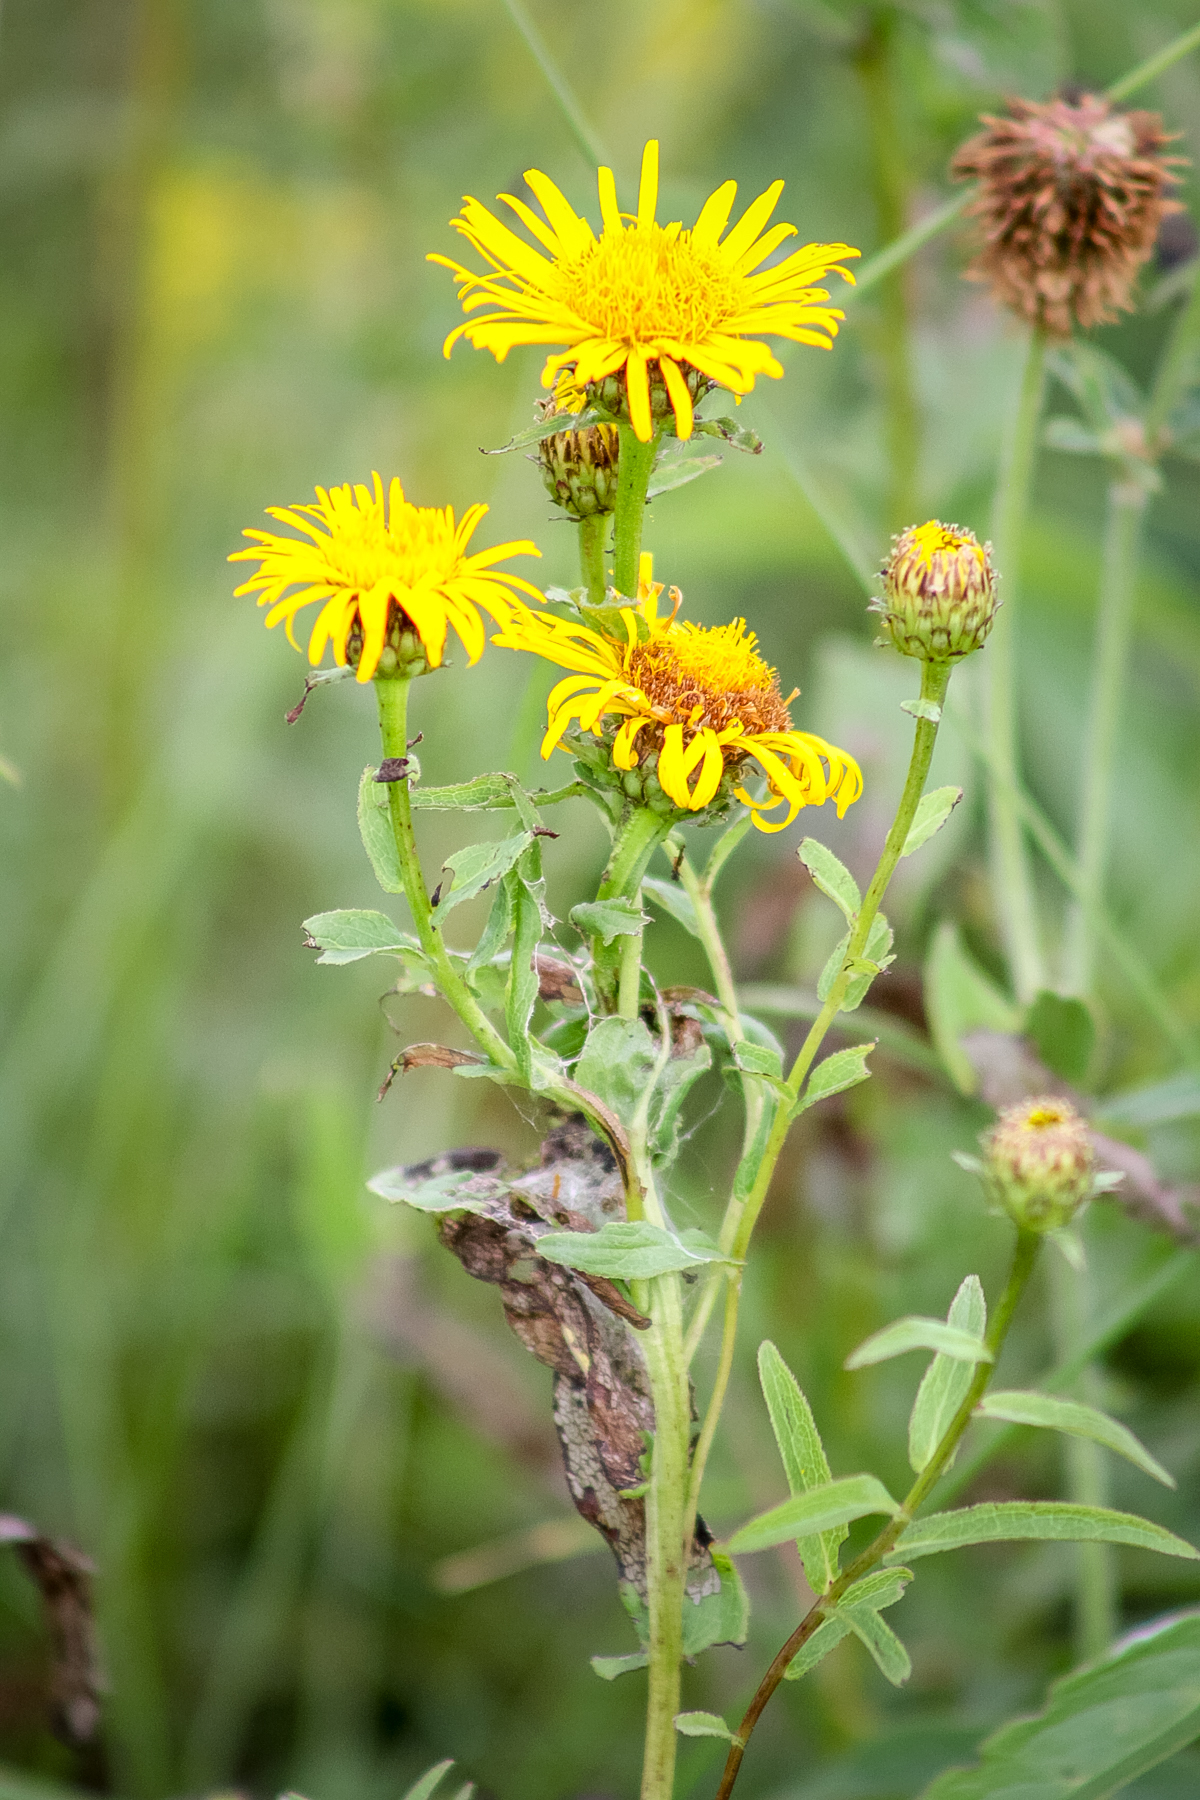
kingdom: Plantae
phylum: Tracheophyta
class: Magnoliopsida
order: Asterales
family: Asteraceae
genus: Pentanema
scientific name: Pentanema salicinum
